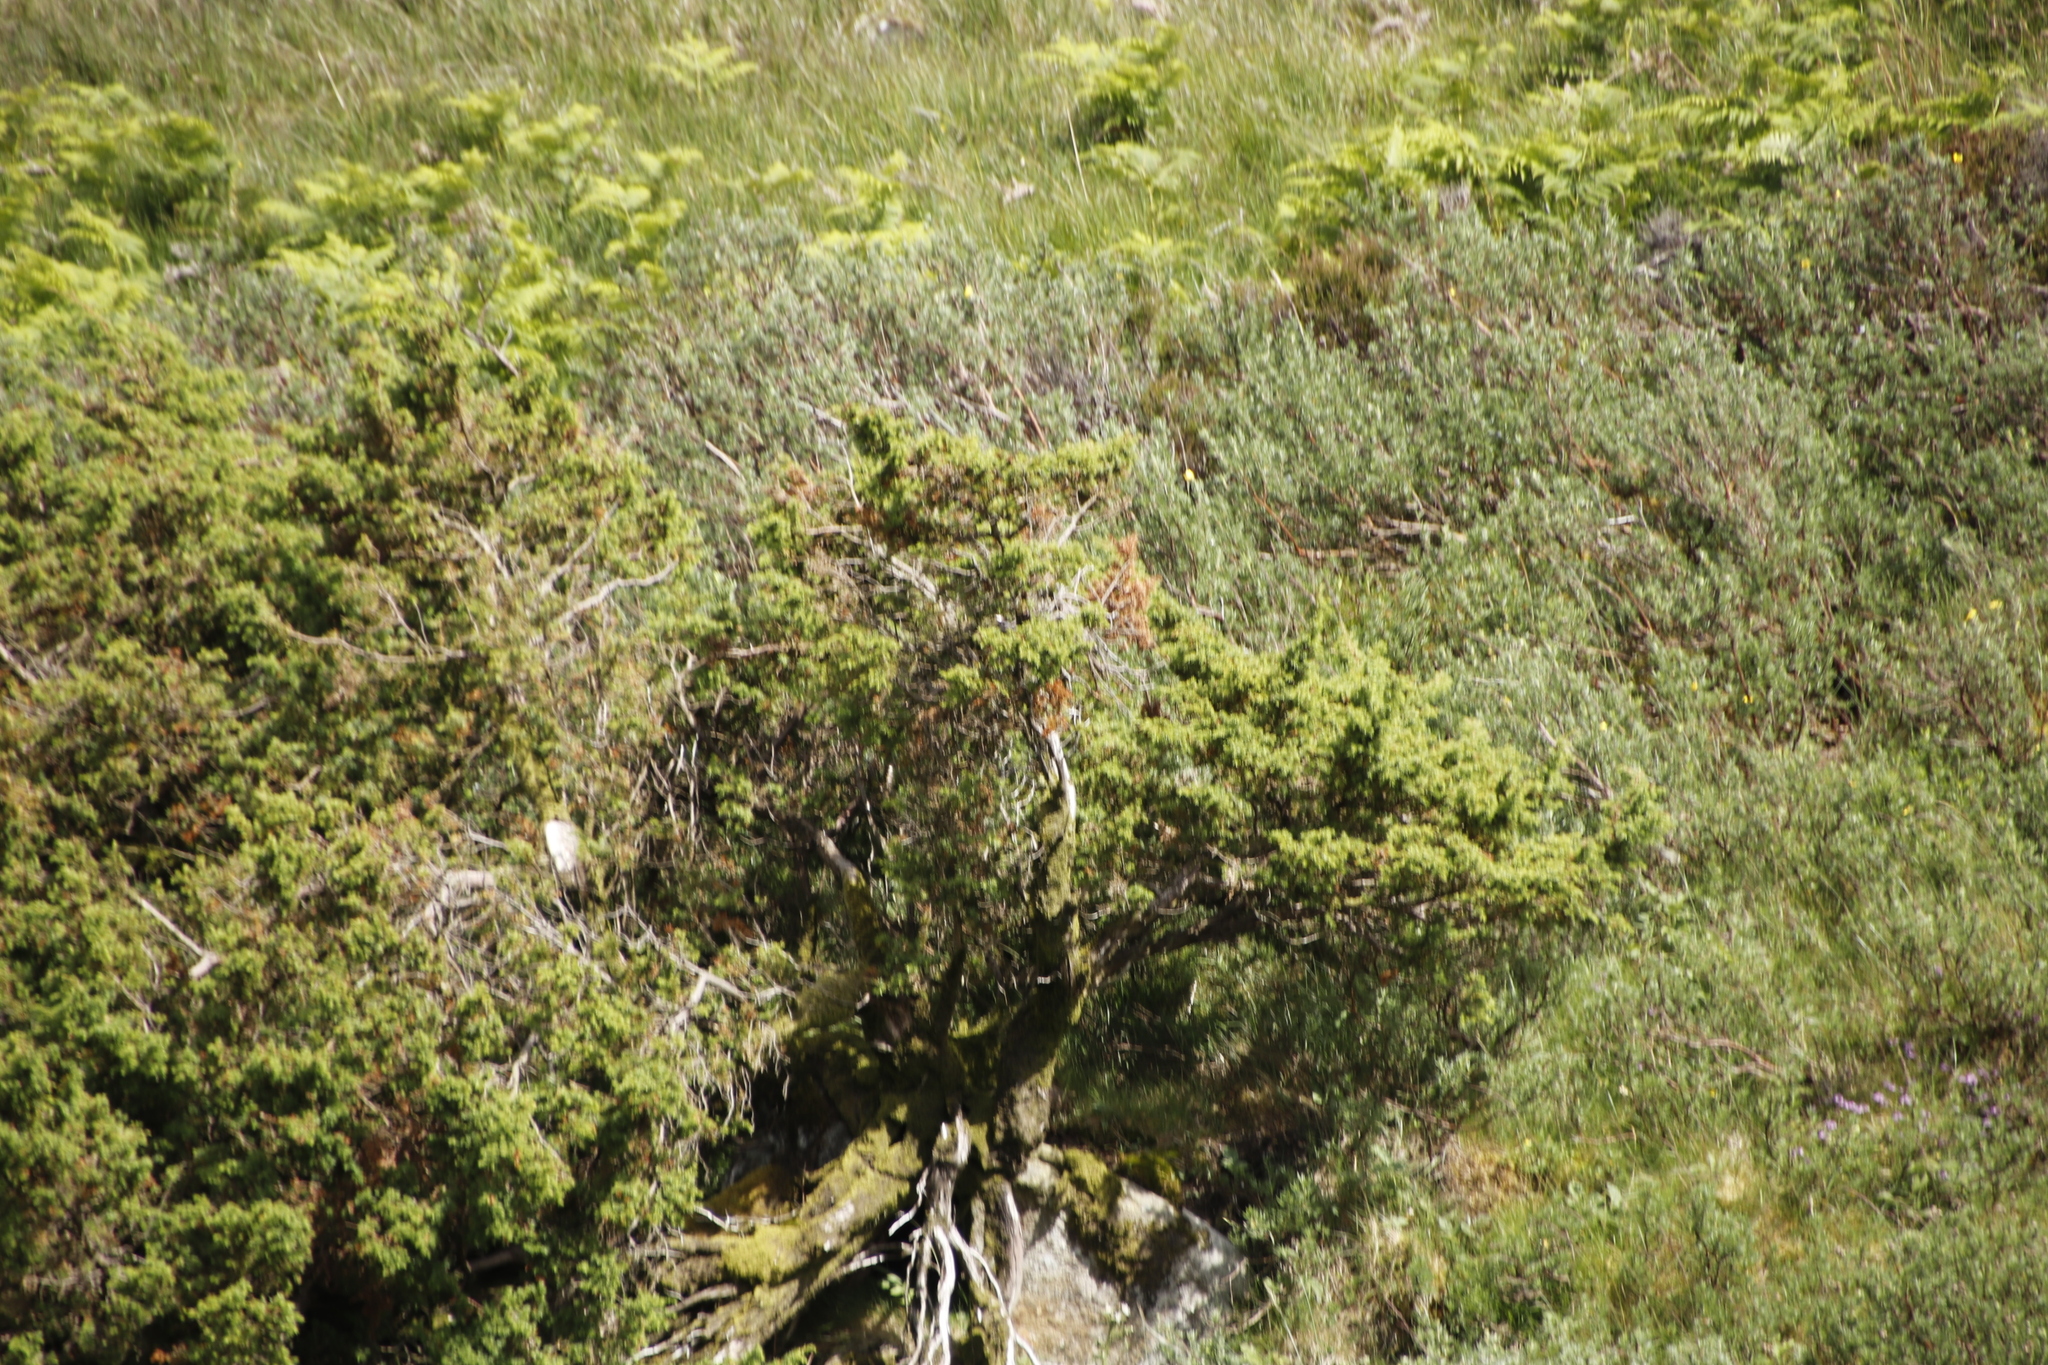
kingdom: Plantae
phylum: Tracheophyta
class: Magnoliopsida
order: Fabales
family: Fabaceae
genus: Ulex
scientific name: Ulex europaeus
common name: Common gorse
